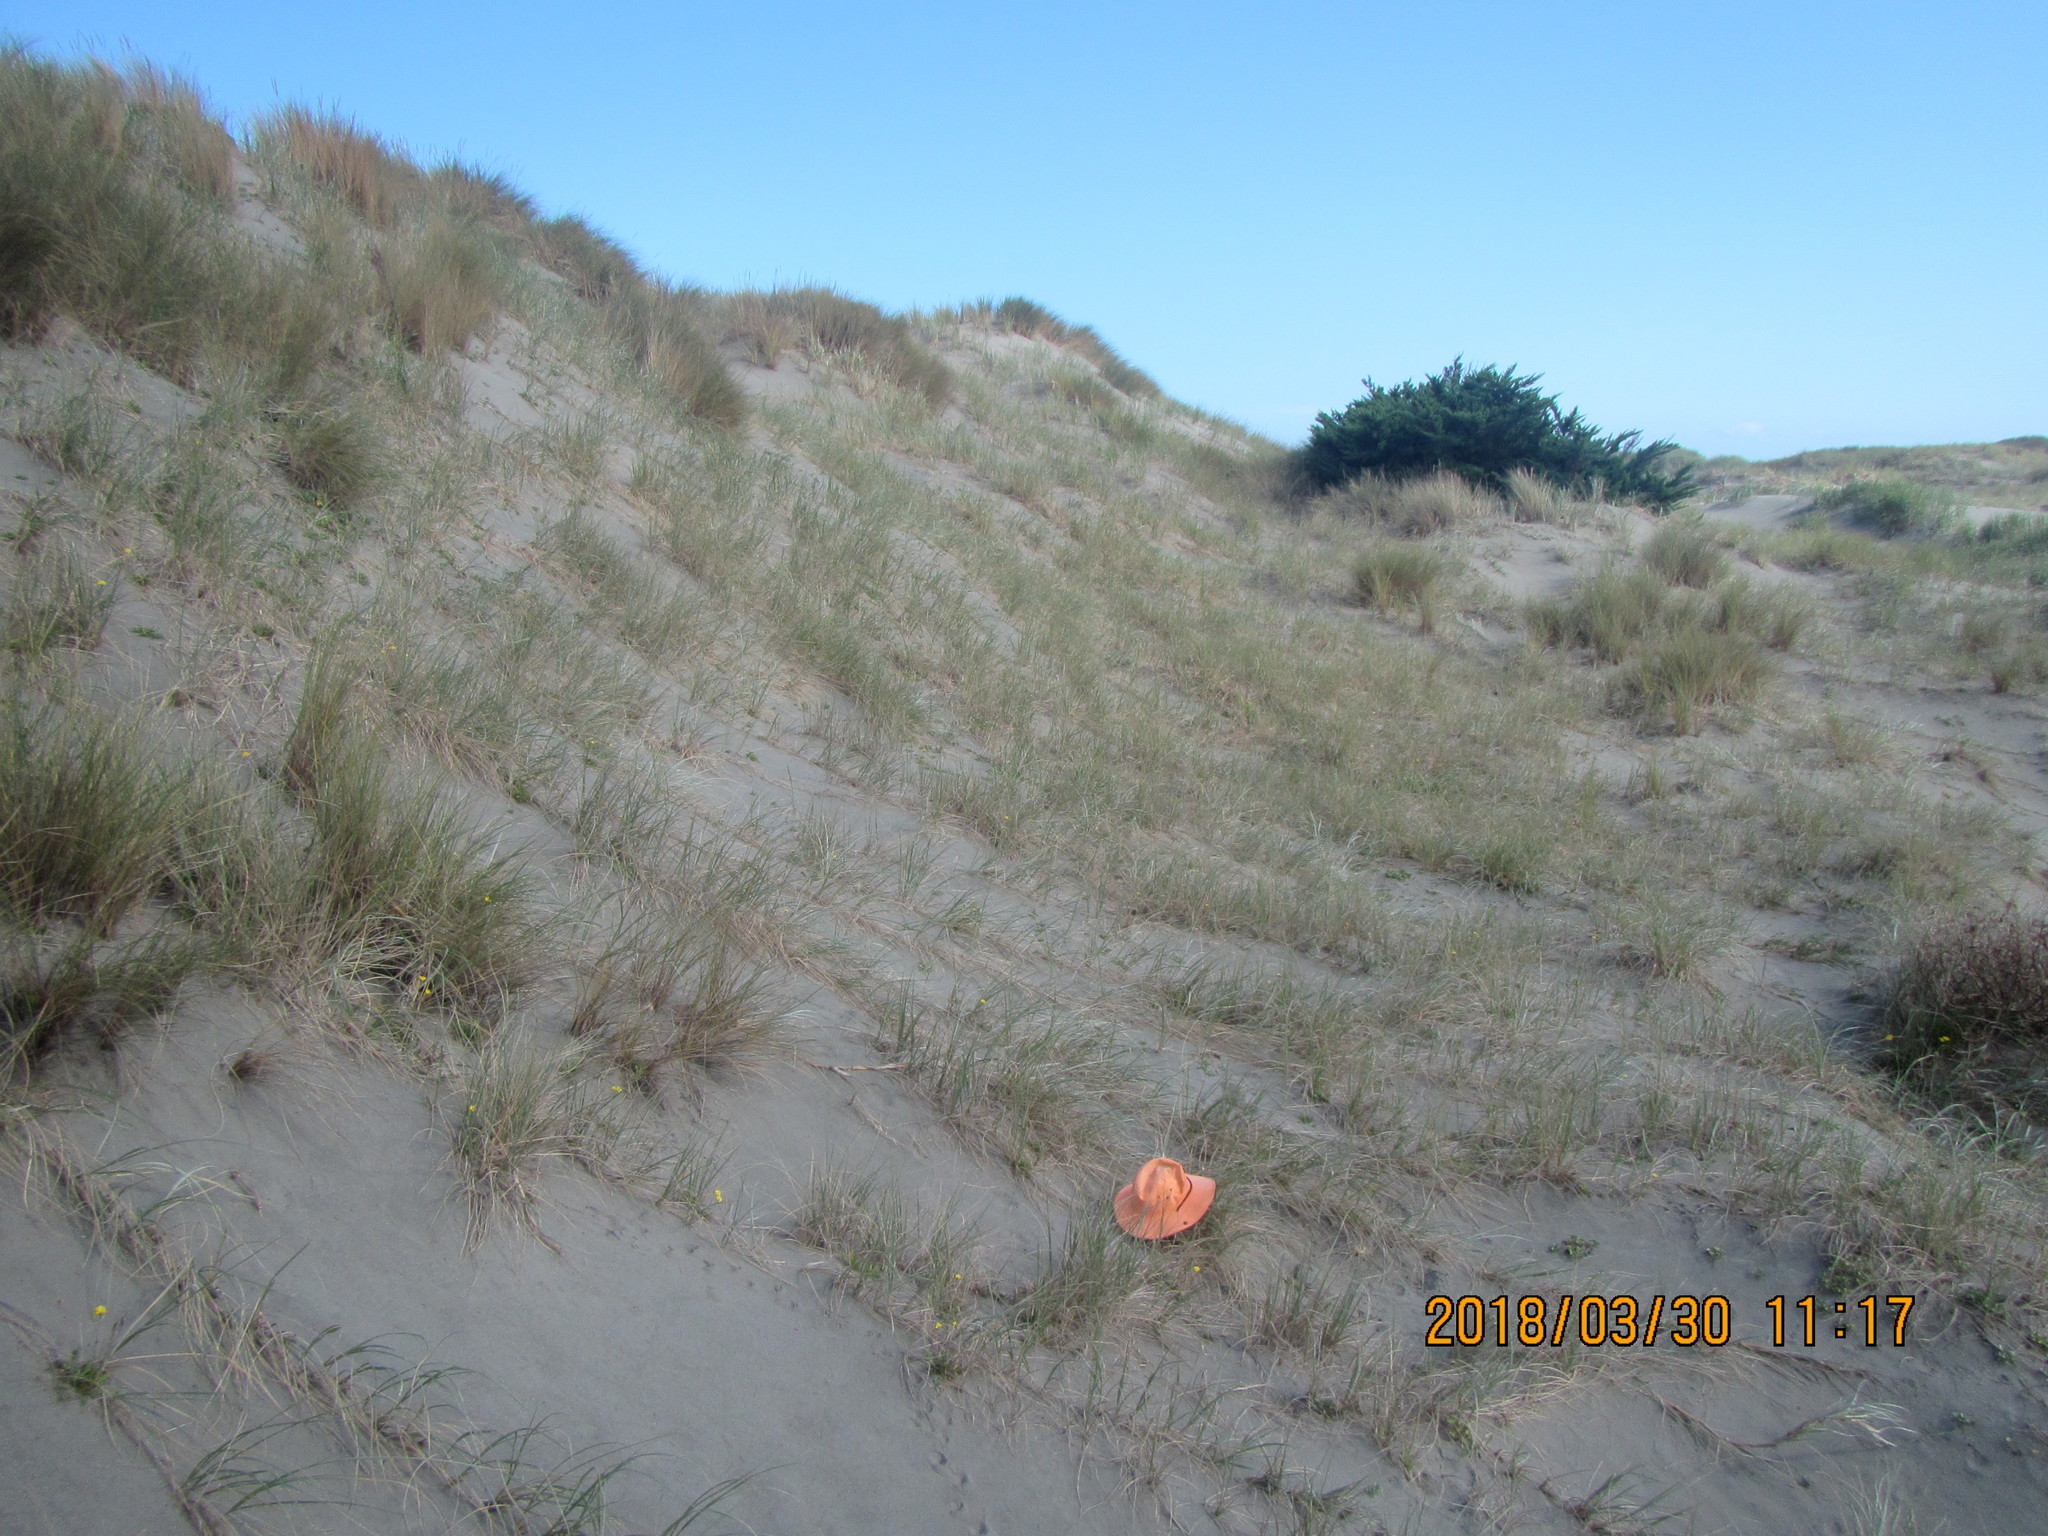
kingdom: Animalia
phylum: Arthropoda
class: Arachnida
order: Araneae
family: Gnaphosidae
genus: Anzacia
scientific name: Anzacia gemmea
